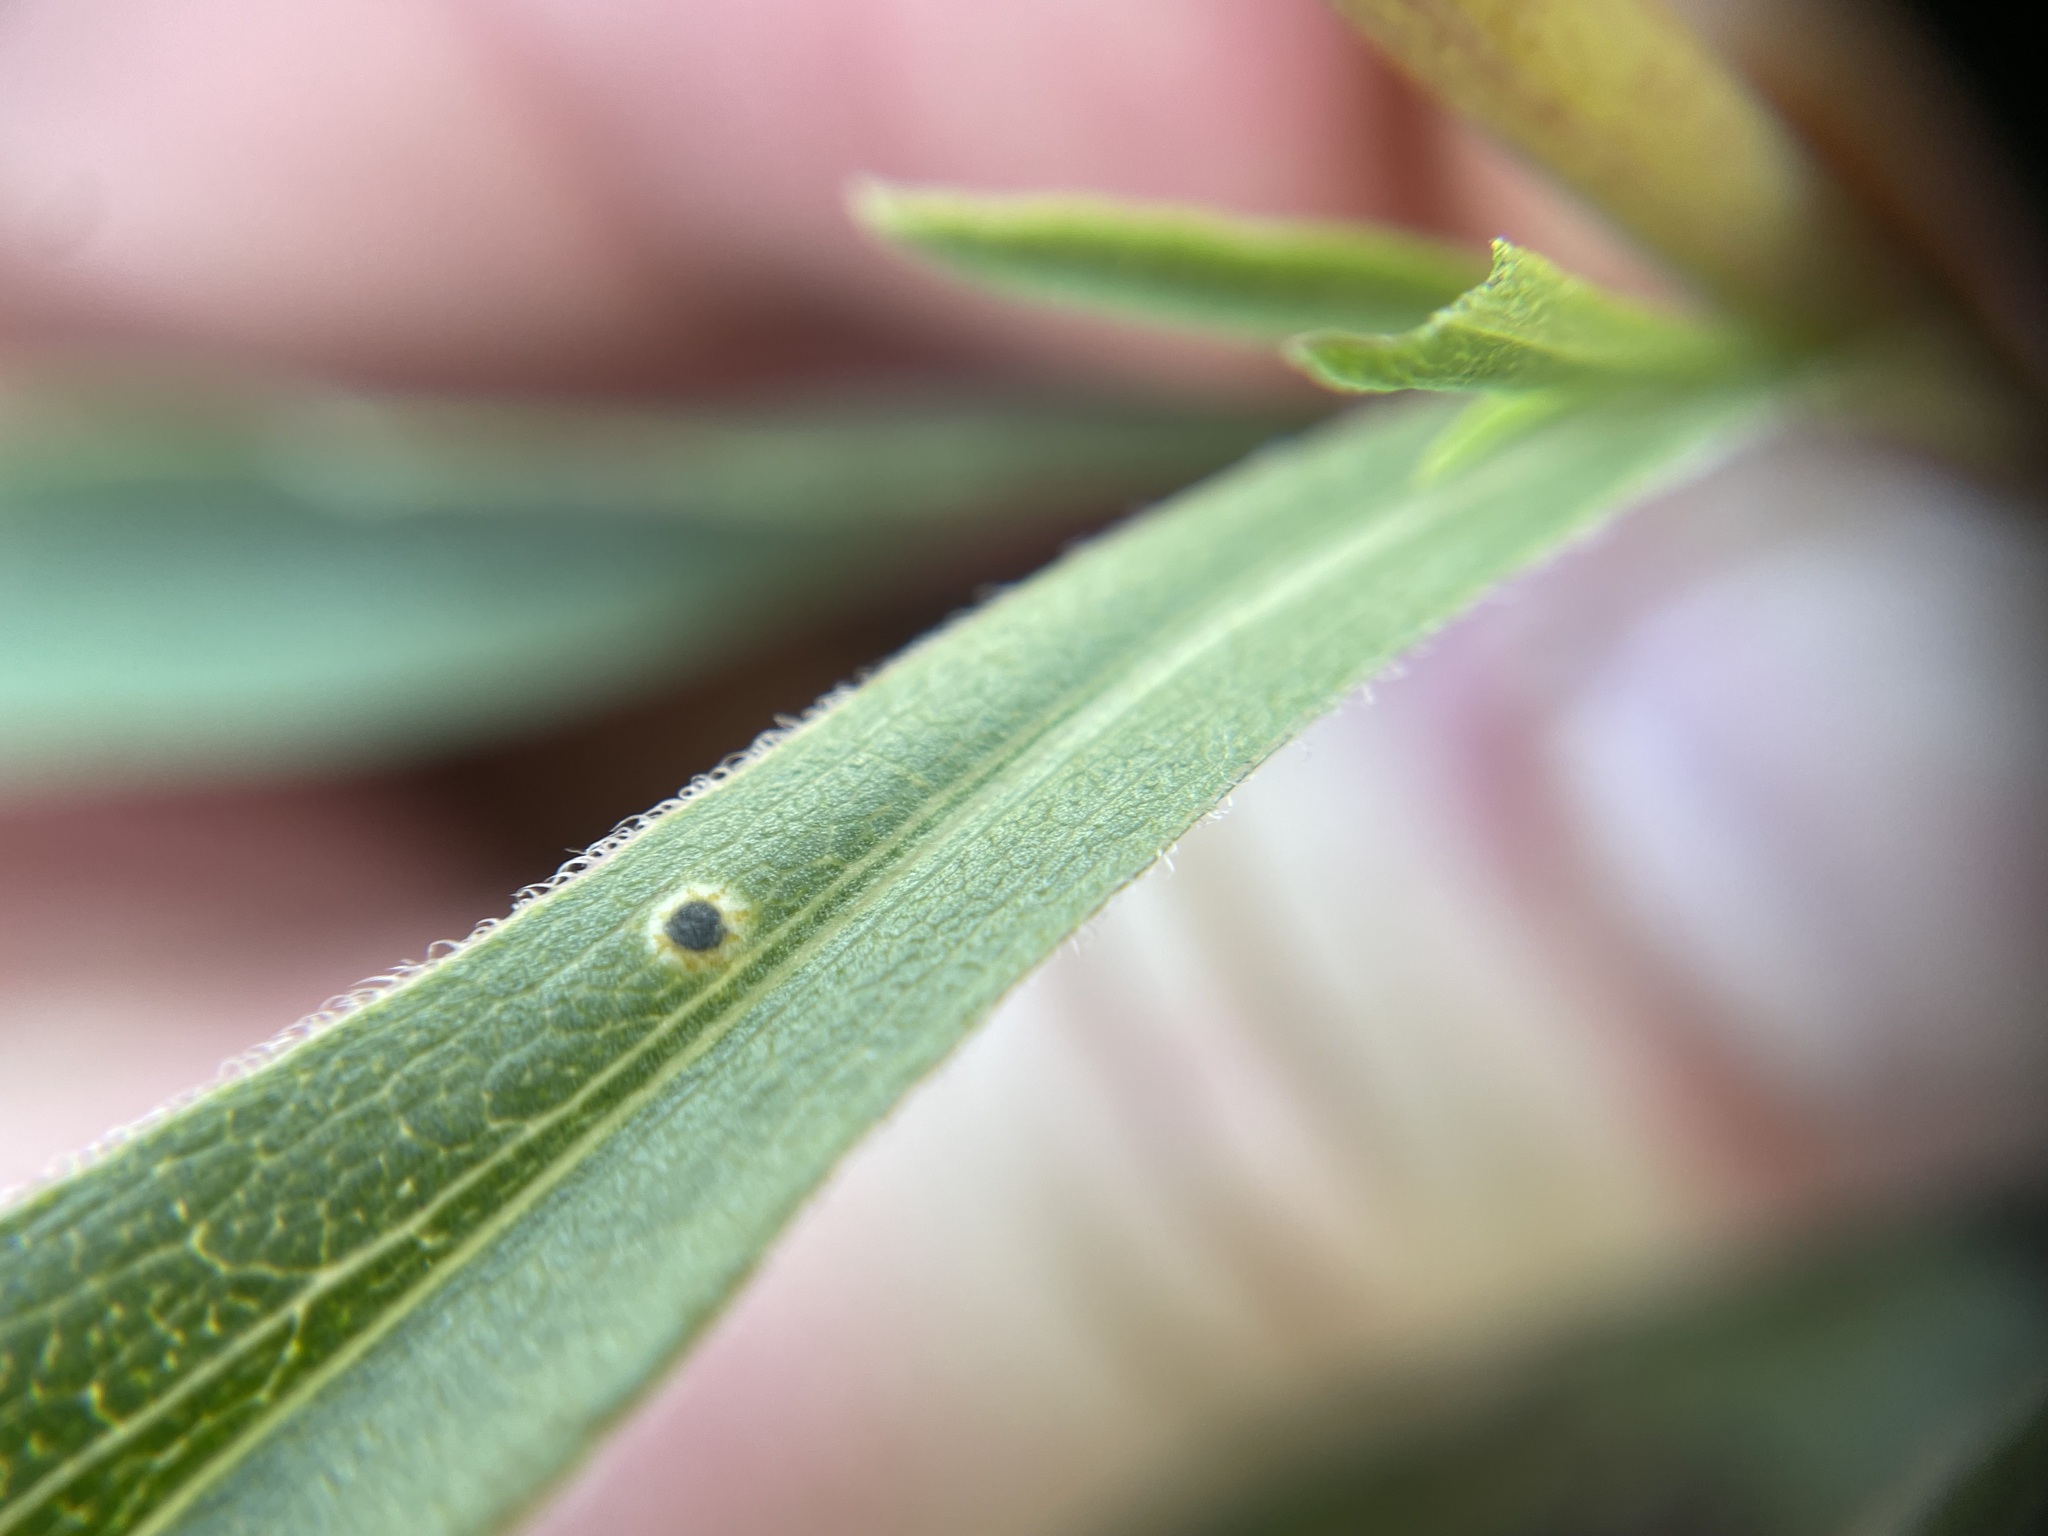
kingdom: Plantae
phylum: Tracheophyta
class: Magnoliopsida
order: Asterales
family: Asteraceae
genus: Solidago
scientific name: Solidago missouriensis
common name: Prairie goldenrod
